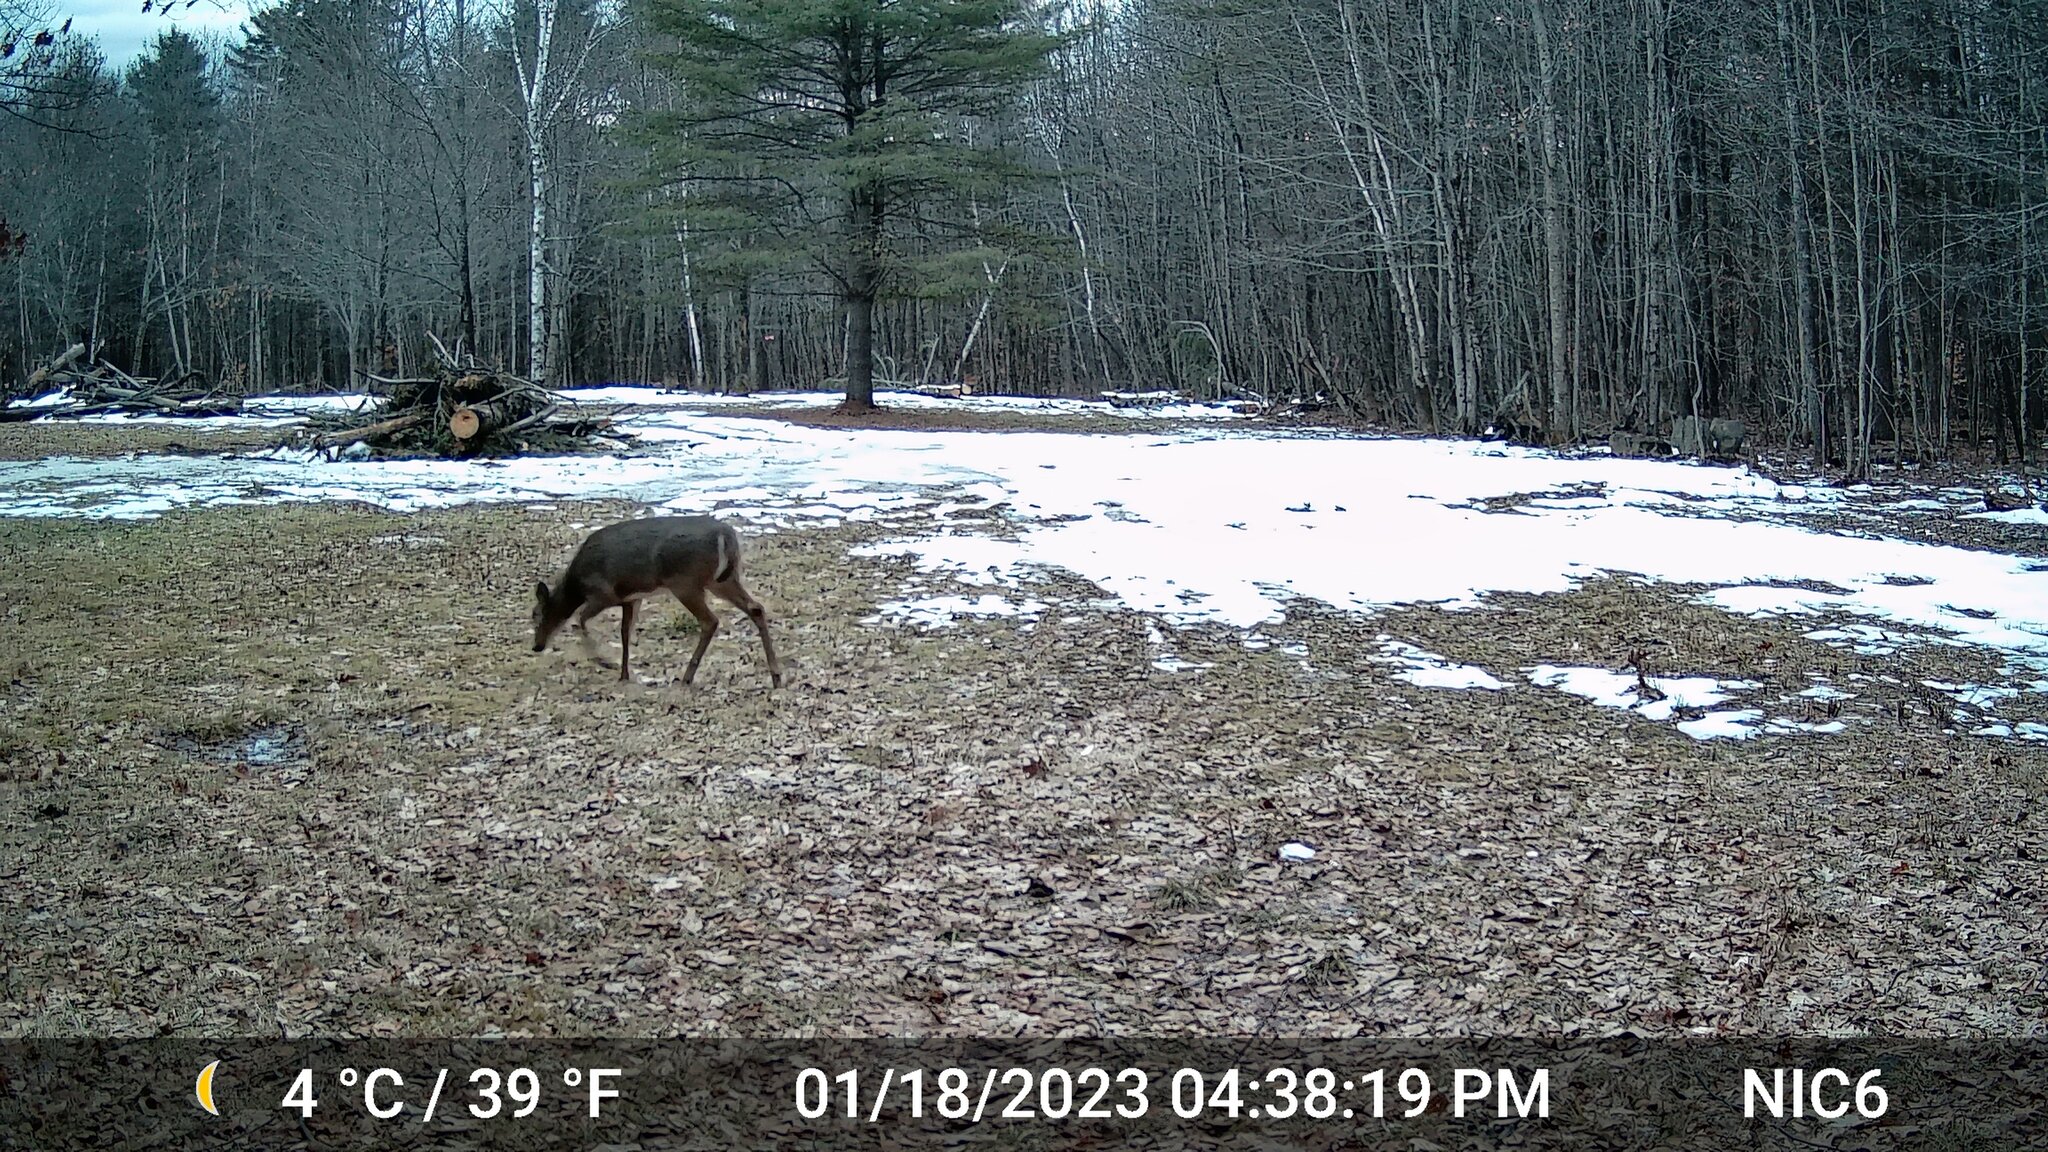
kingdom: Animalia
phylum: Chordata
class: Mammalia
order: Artiodactyla
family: Cervidae
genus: Odocoileus
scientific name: Odocoileus virginianus
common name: White-tailed deer
